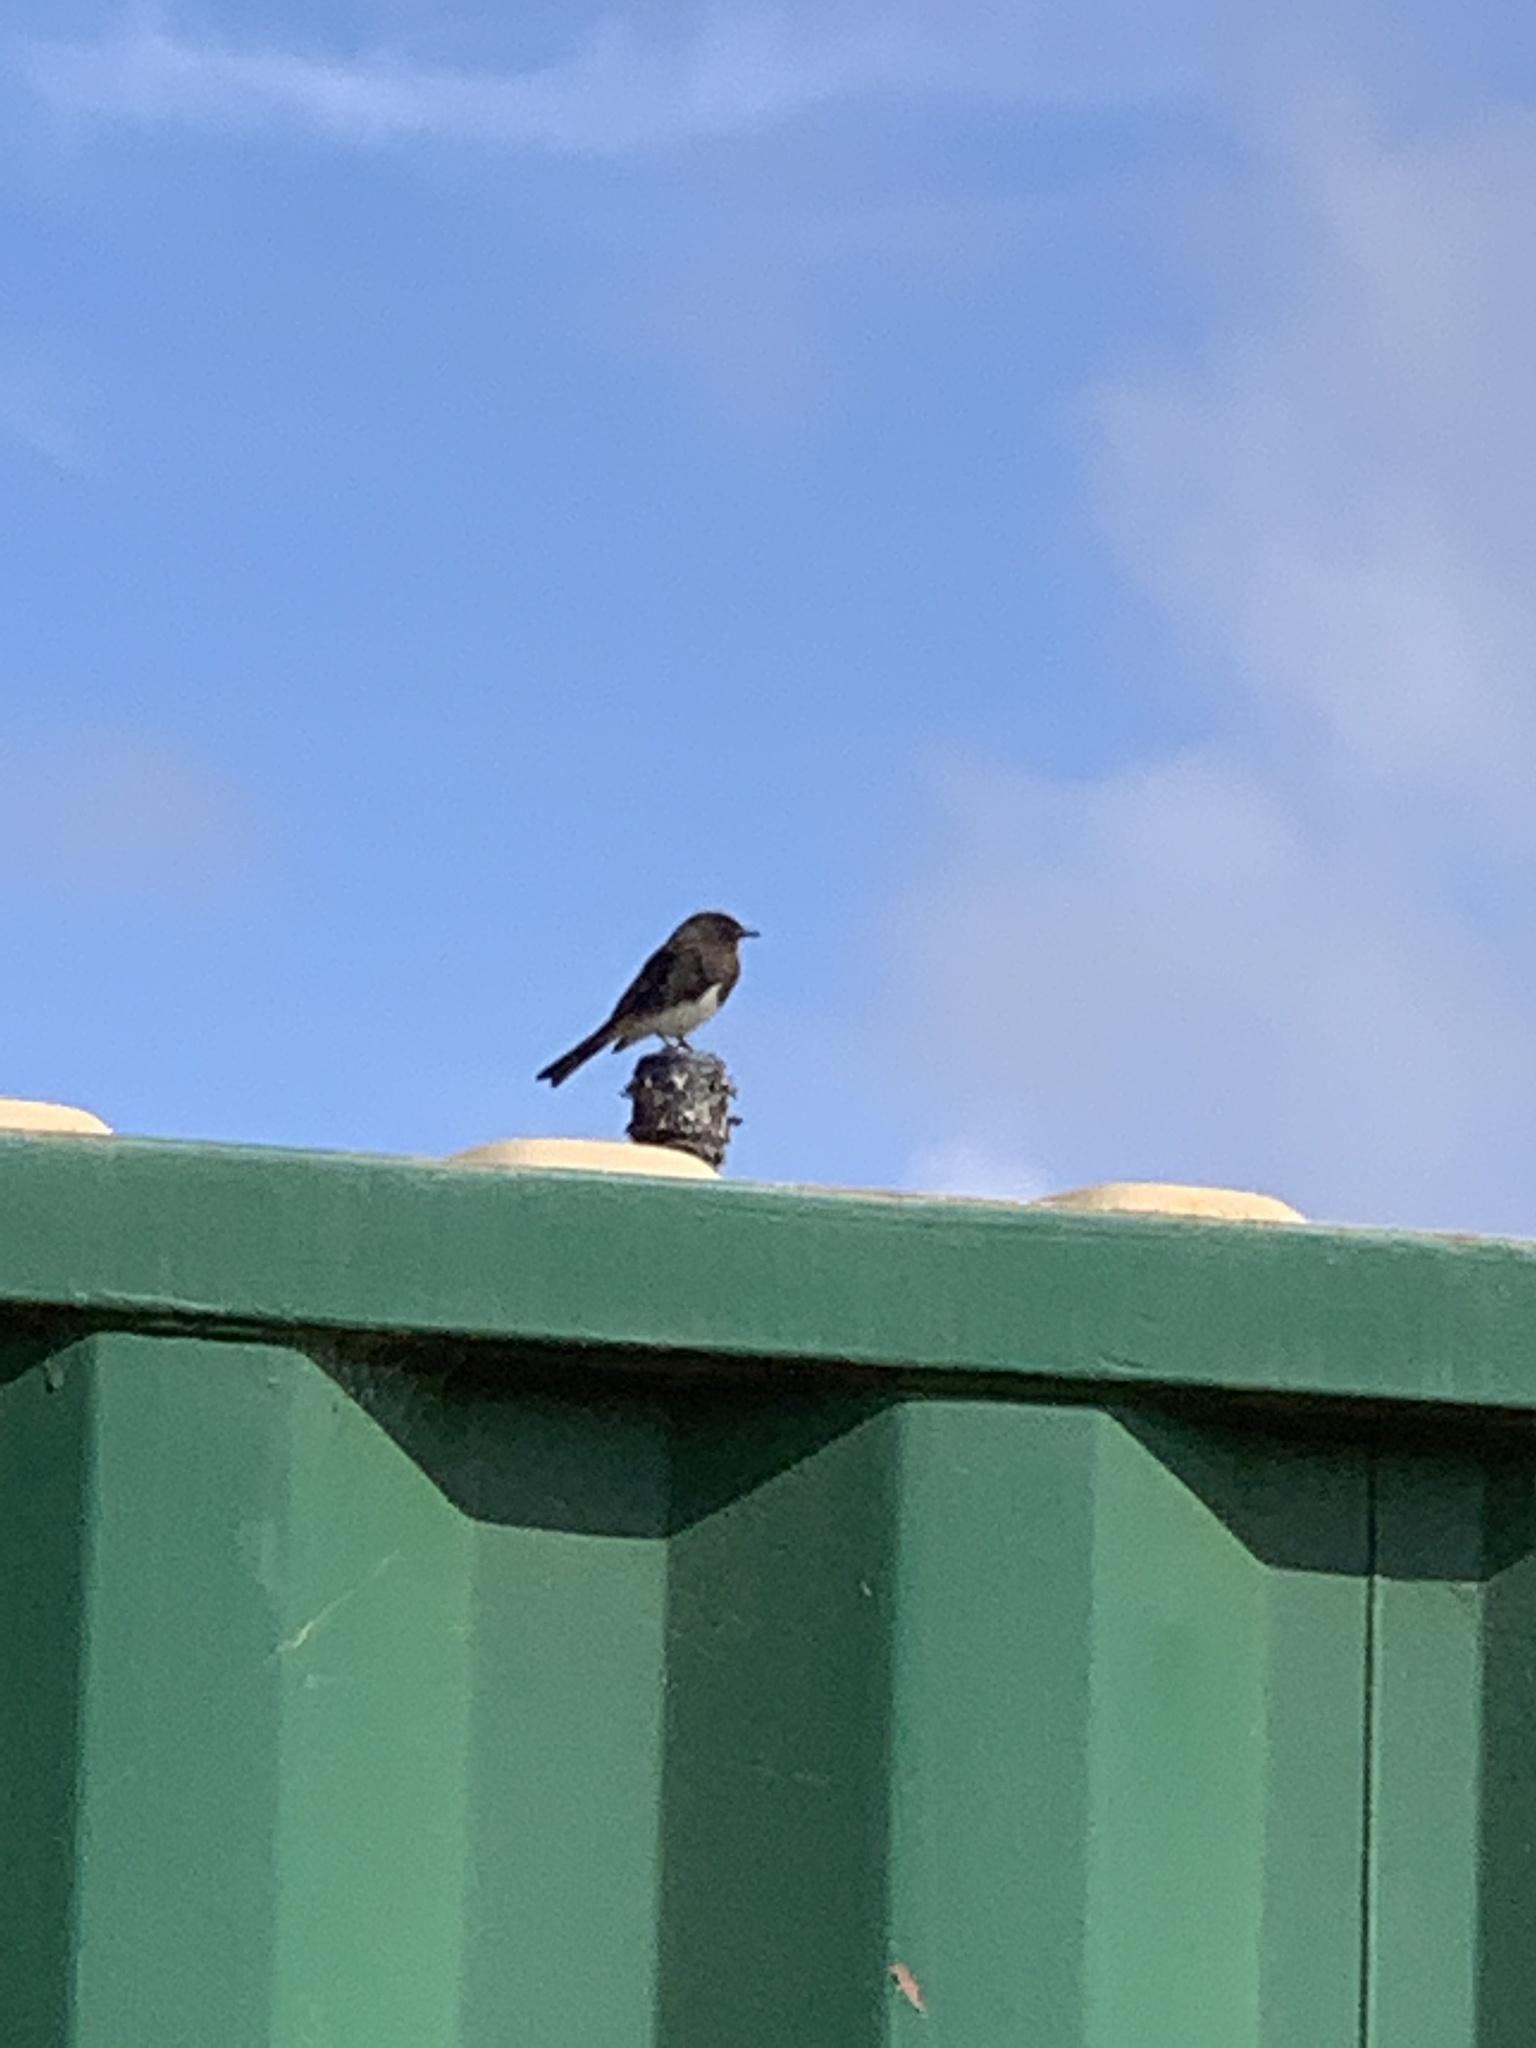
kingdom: Animalia
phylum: Chordata
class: Aves
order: Passeriformes
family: Tyrannidae
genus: Sayornis
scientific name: Sayornis nigricans
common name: Black phoebe
